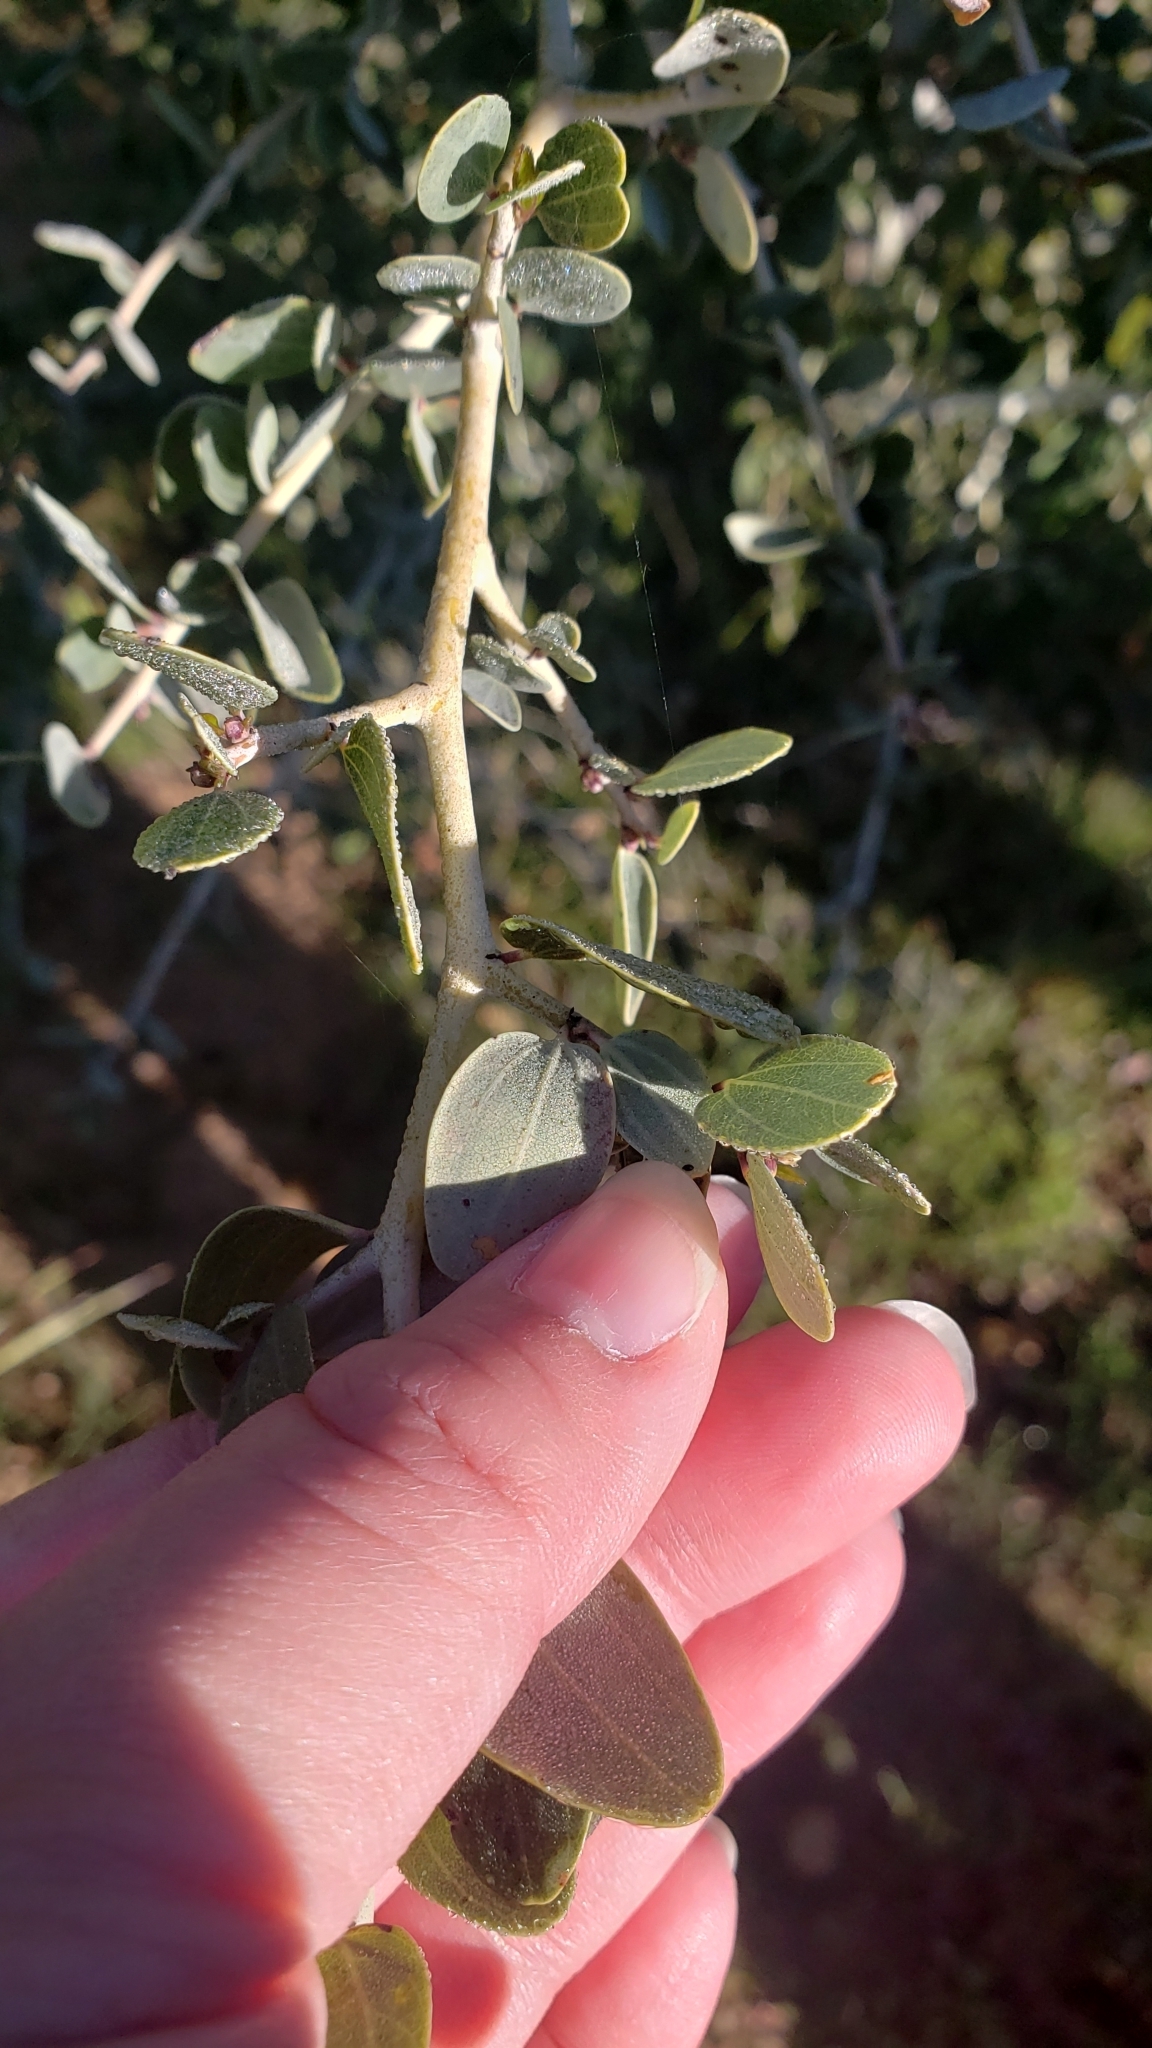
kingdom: Plantae
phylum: Tracheophyta
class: Magnoliopsida
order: Rosales
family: Rhamnaceae
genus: Ceanothus
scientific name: Ceanothus leucodermis
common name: Chaparral whitethorn
